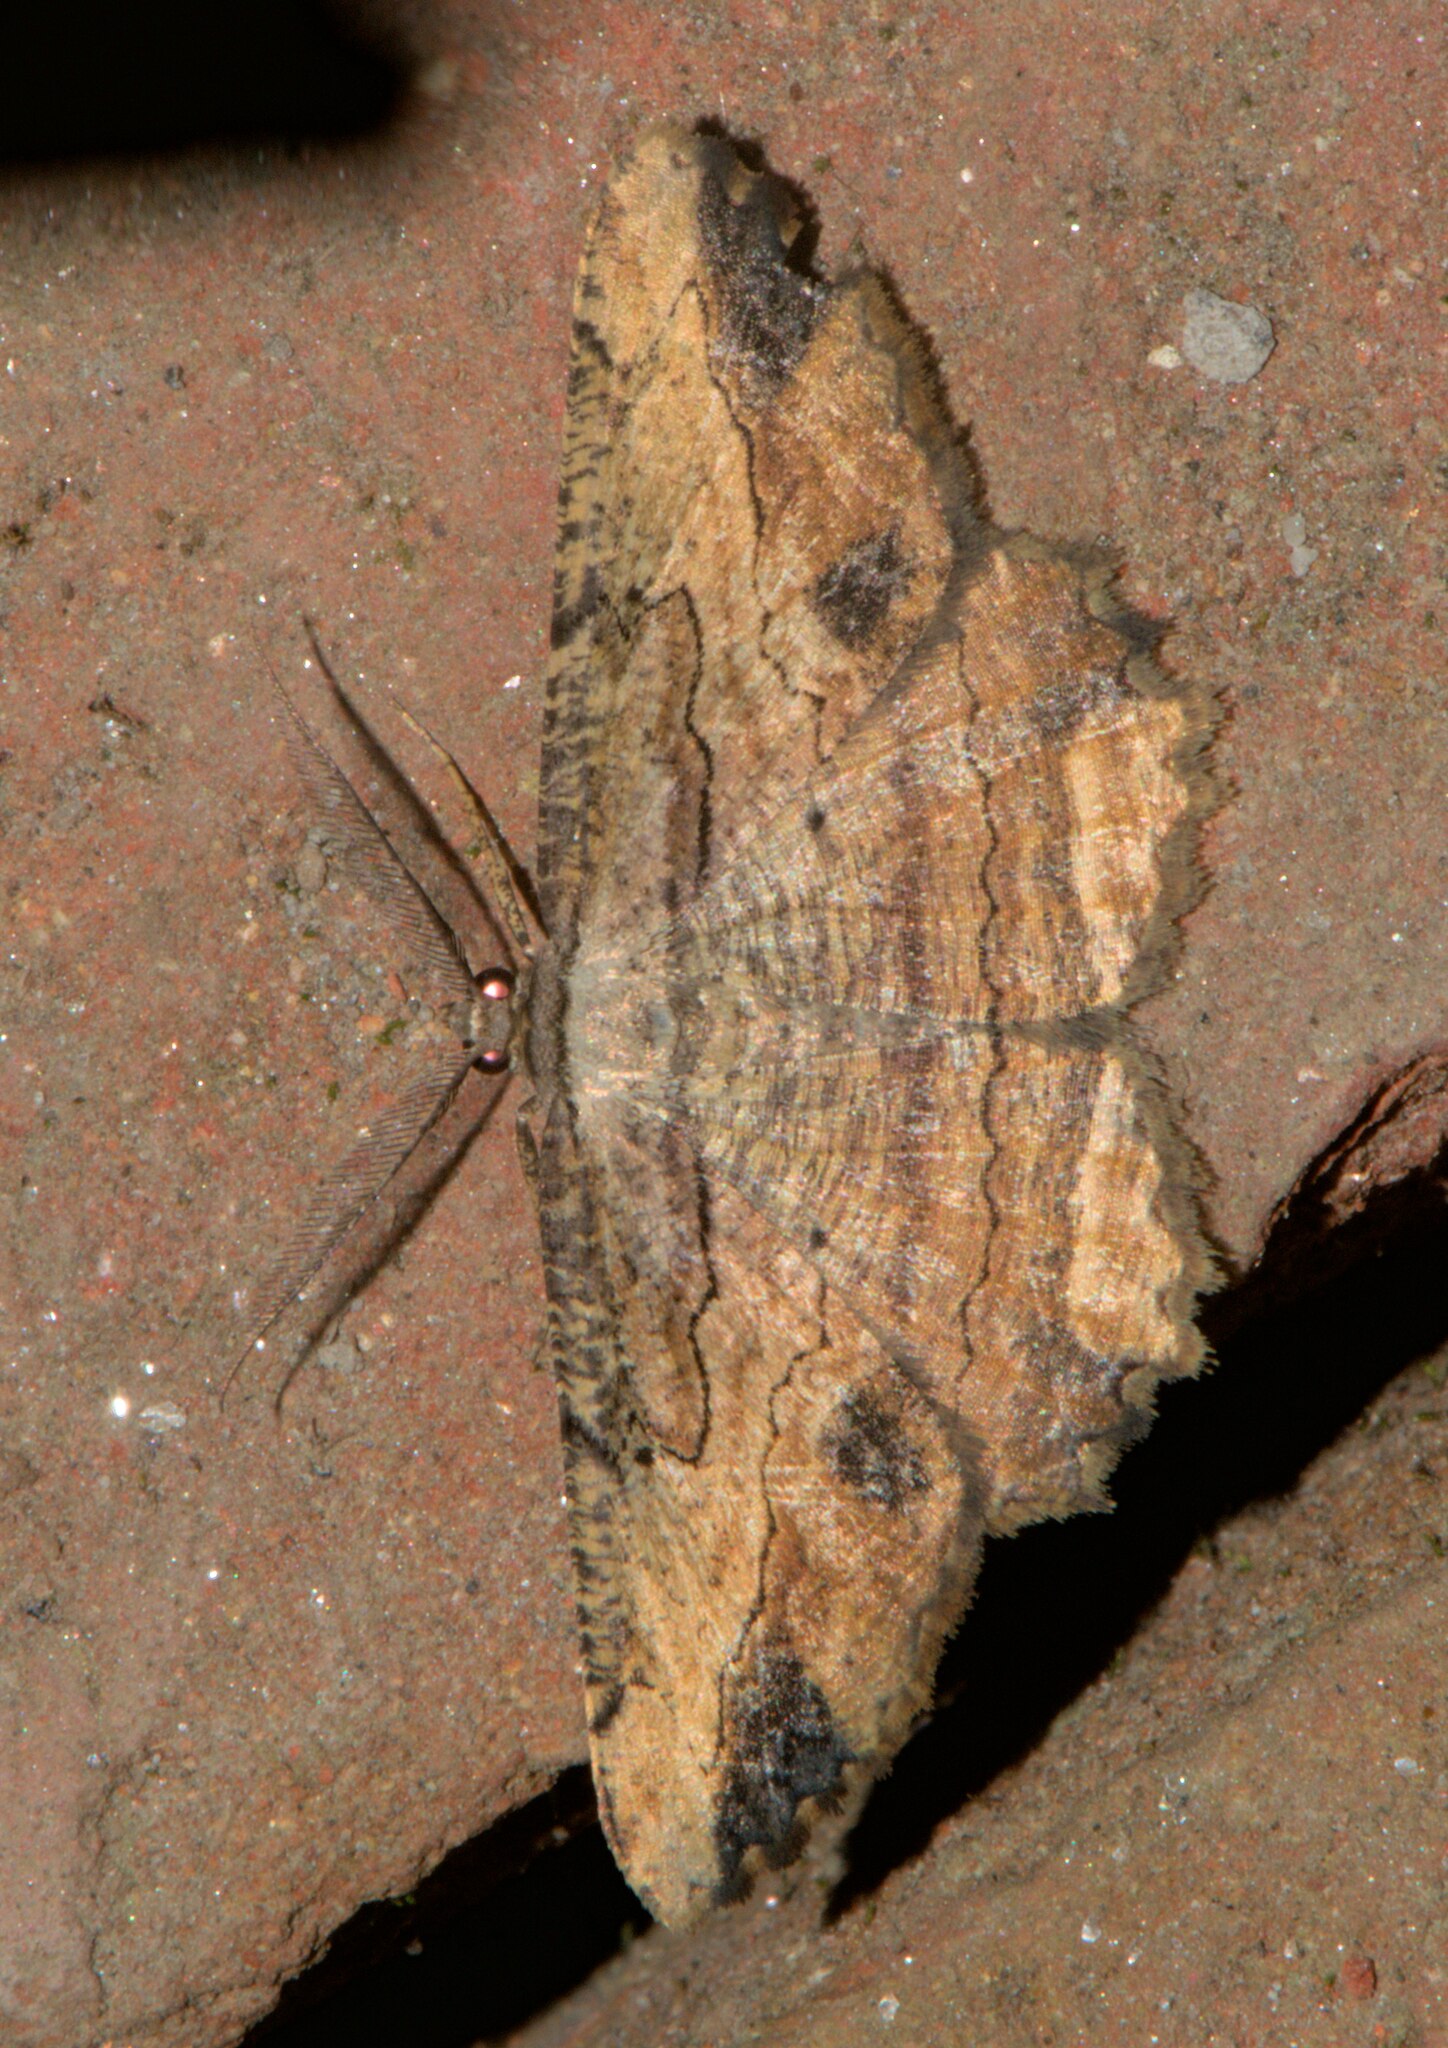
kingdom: Animalia
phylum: Arthropoda
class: Insecta
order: Lepidoptera
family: Geometridae
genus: Menophra
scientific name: Menophra subplagiata
